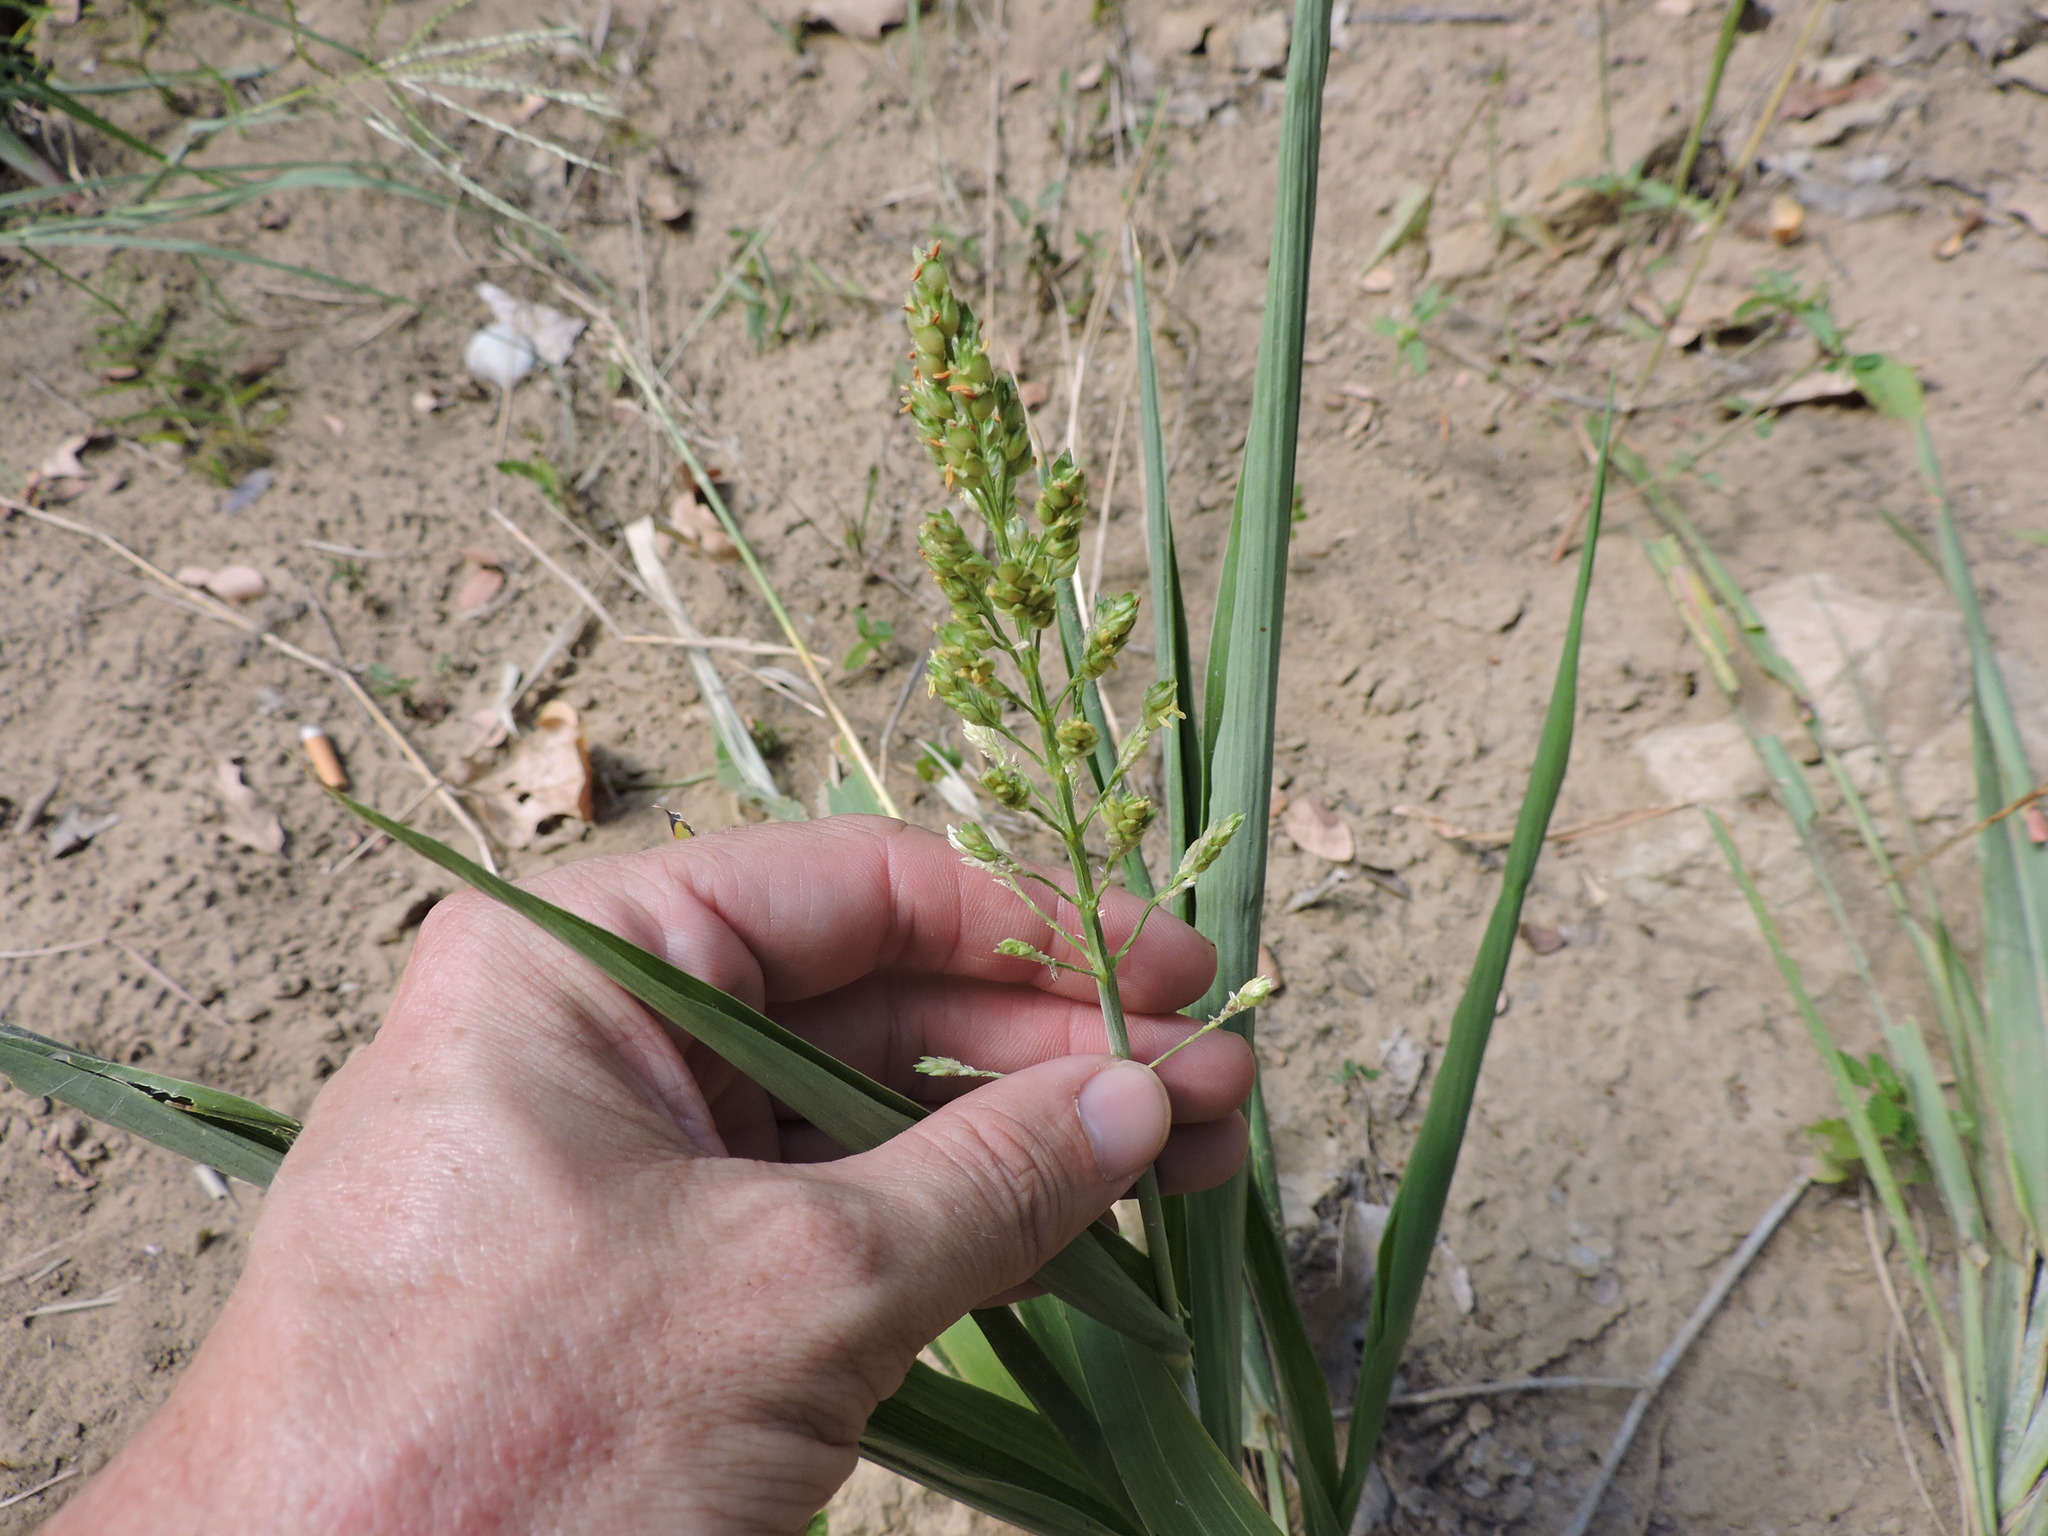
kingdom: Plantae
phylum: Tracheophyta
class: Liliopsida
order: Poales
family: Poaceae
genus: Sorghum
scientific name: Sorghum bicolor
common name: Sorghum
